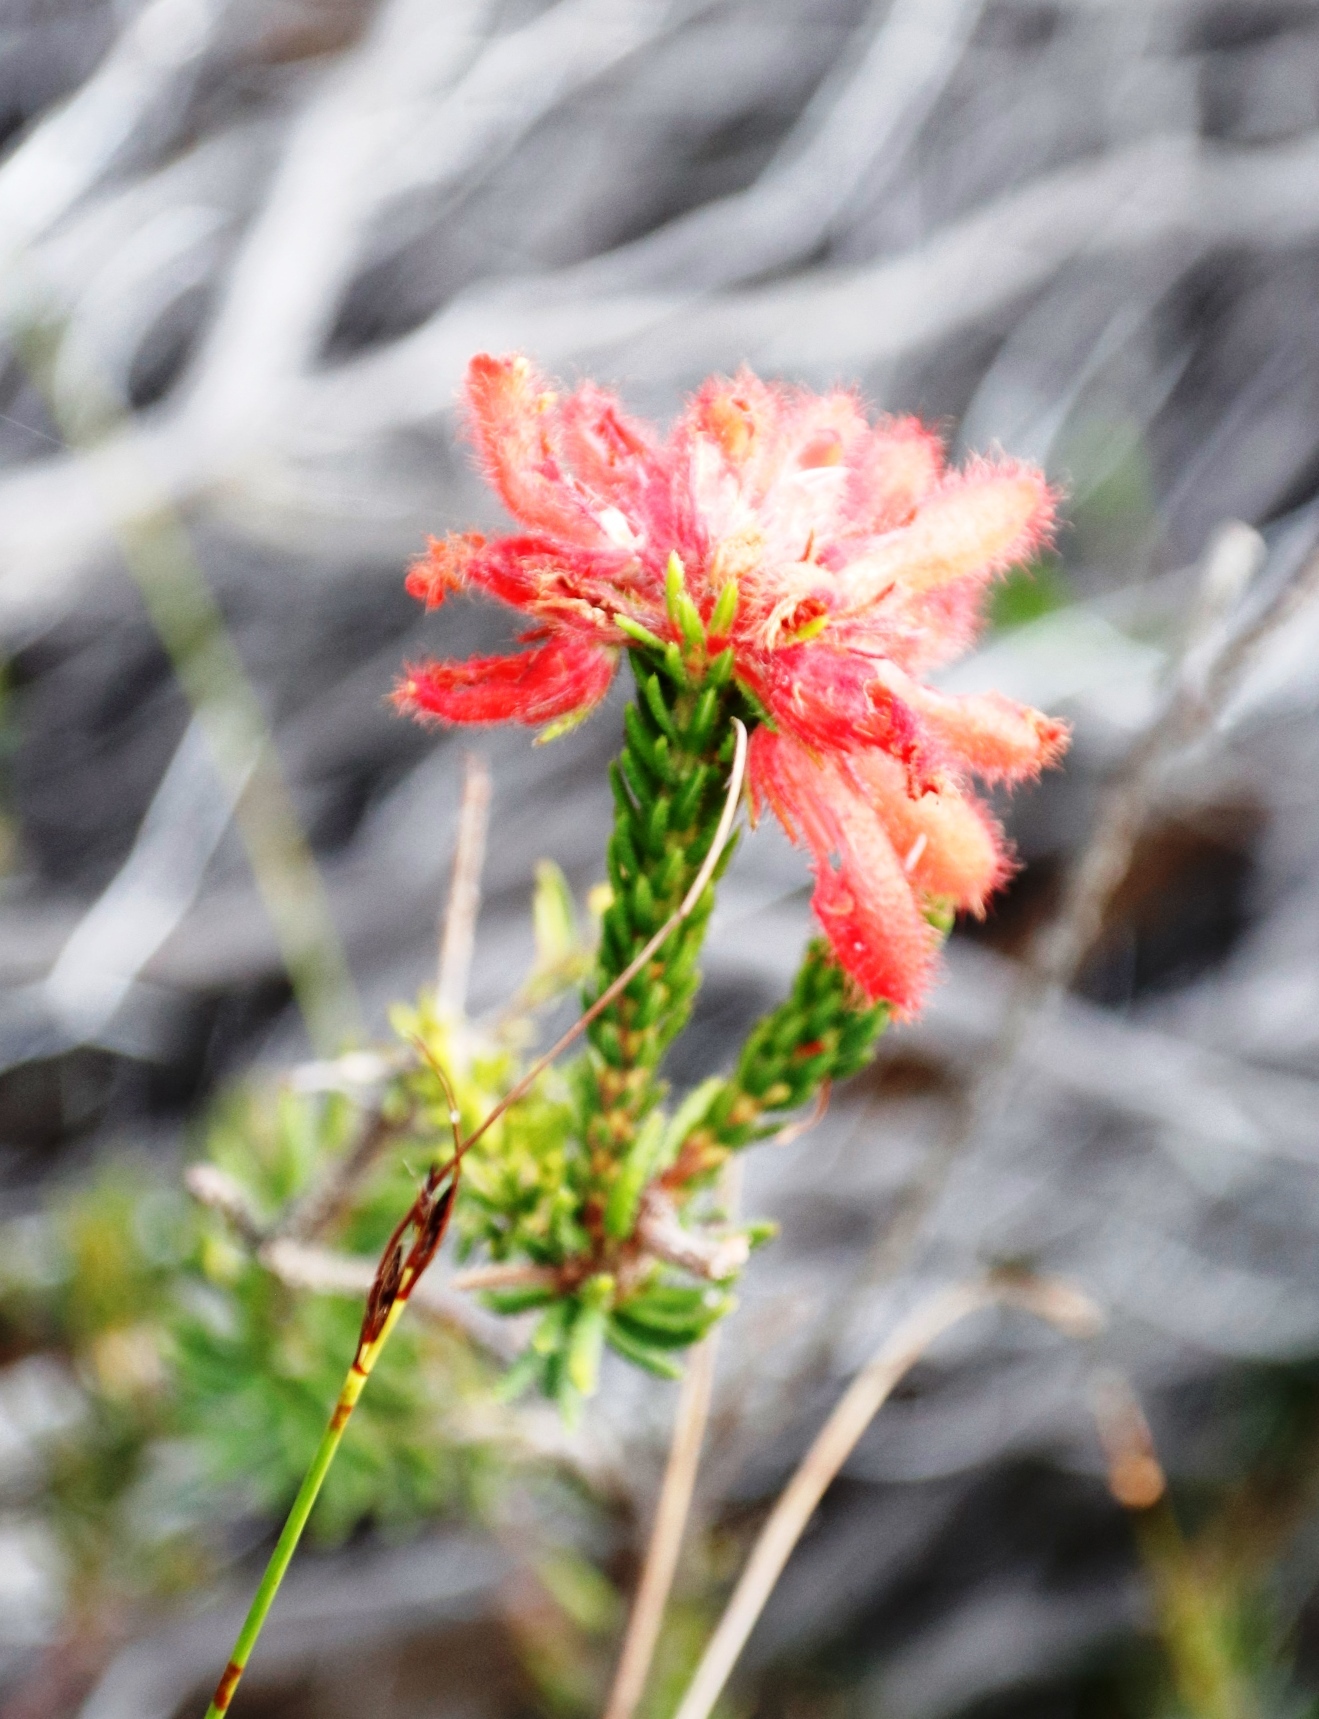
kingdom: Plantae
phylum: Tracheophyta
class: Magnoliopsida
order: Ericales
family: Ericaceae
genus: Erica
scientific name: Erica cerinthoides
